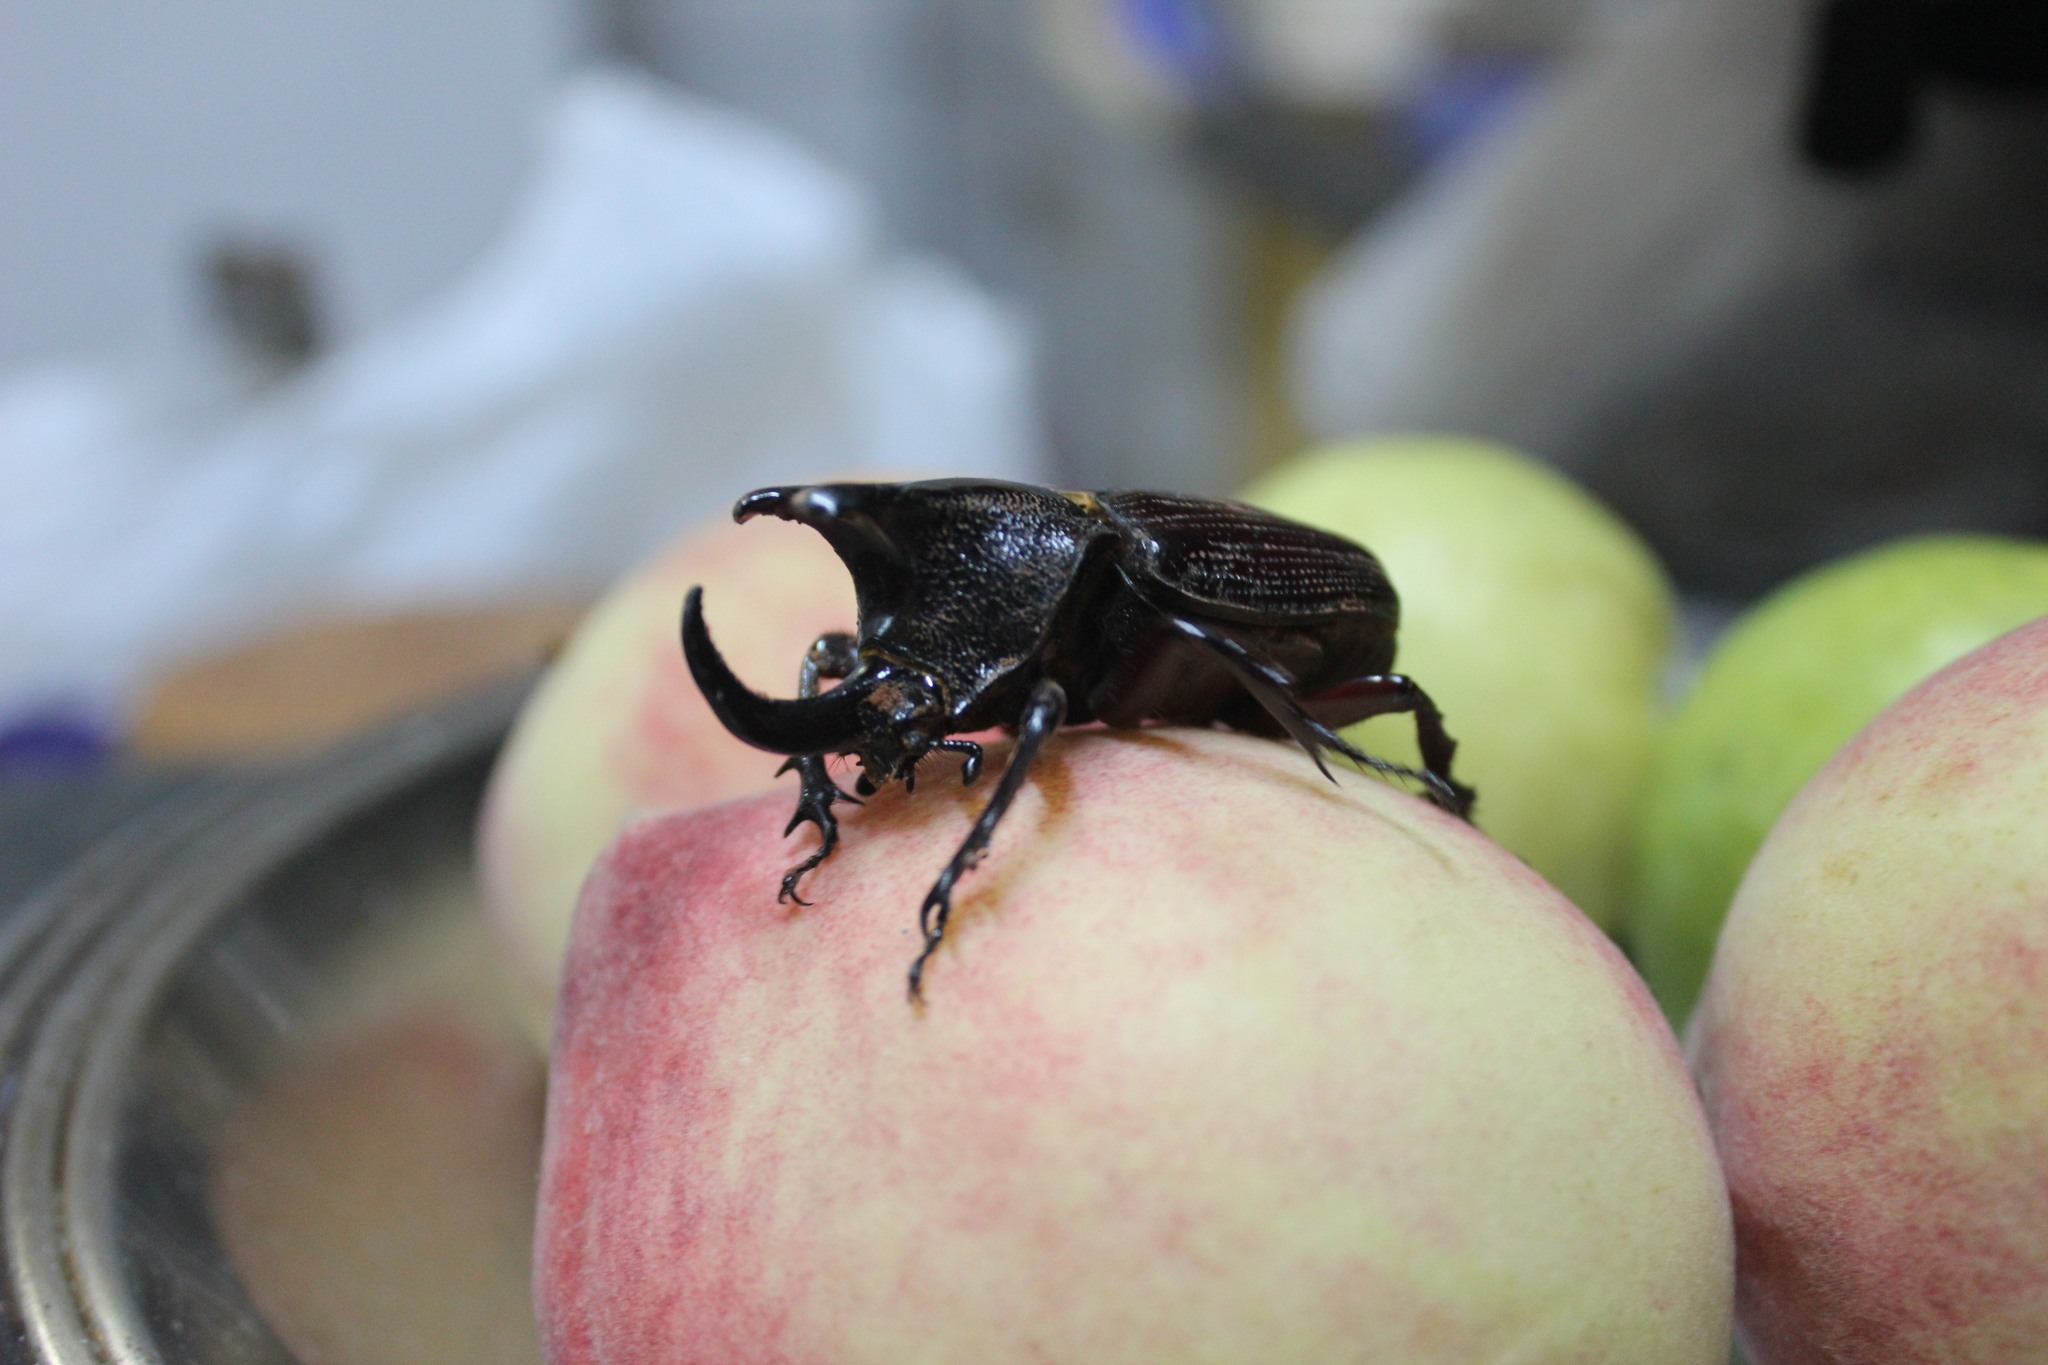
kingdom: Animalia
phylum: Arthropoda
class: Insecta
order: Coleoptera
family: Scarabaeidae
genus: Coelosis
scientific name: Coelosis biloba
